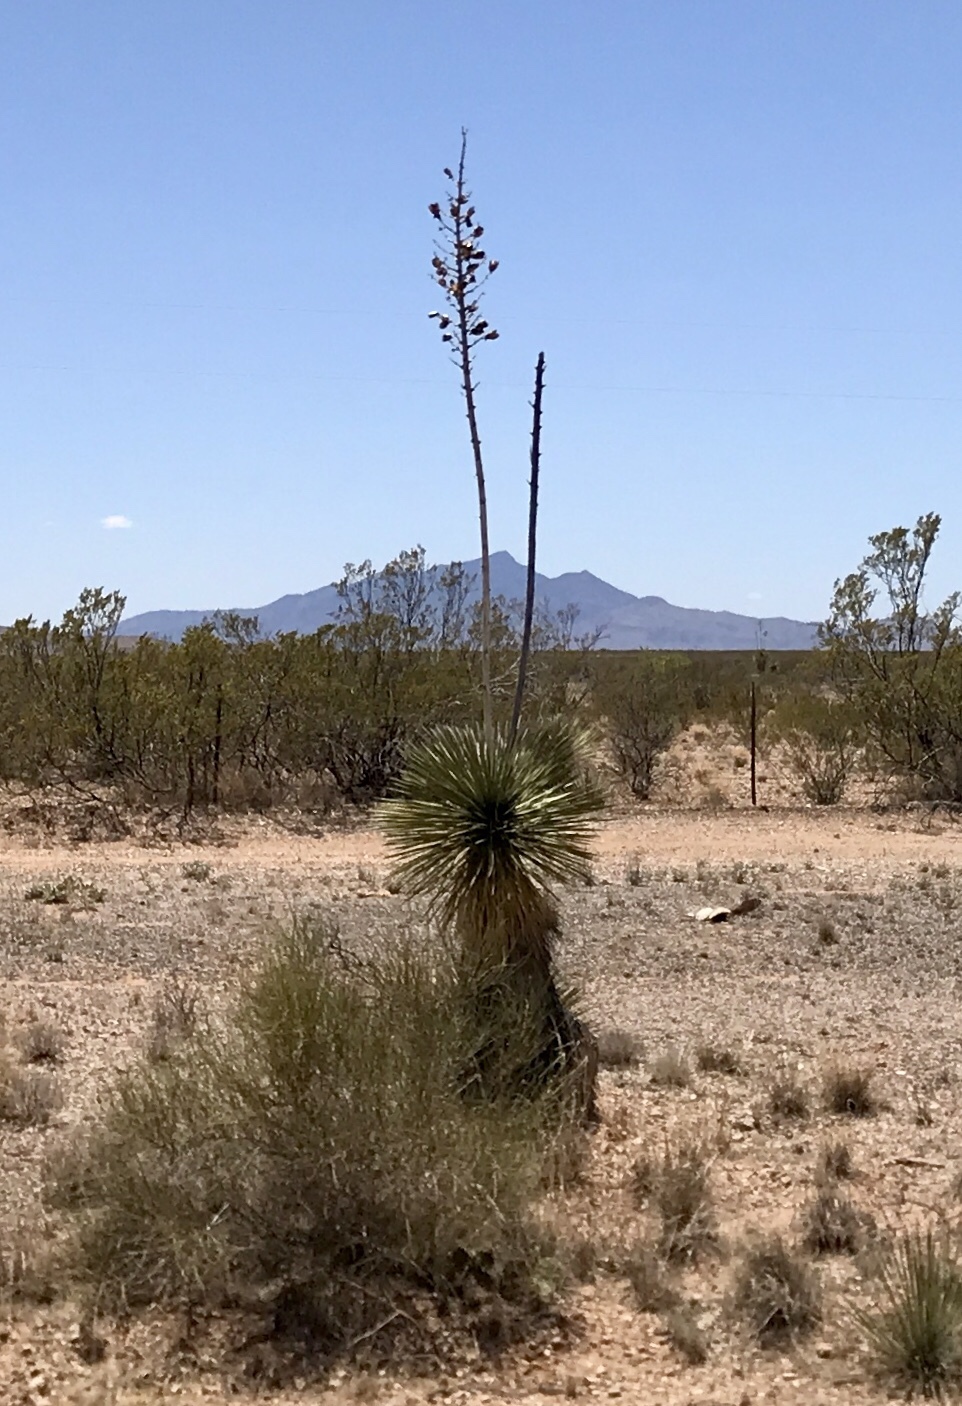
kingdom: Plantae
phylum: Tracheophyta
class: Liliopsida
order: Asparagales
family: Asparagaceae
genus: Yucca
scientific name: Yucca elata
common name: Palmella
